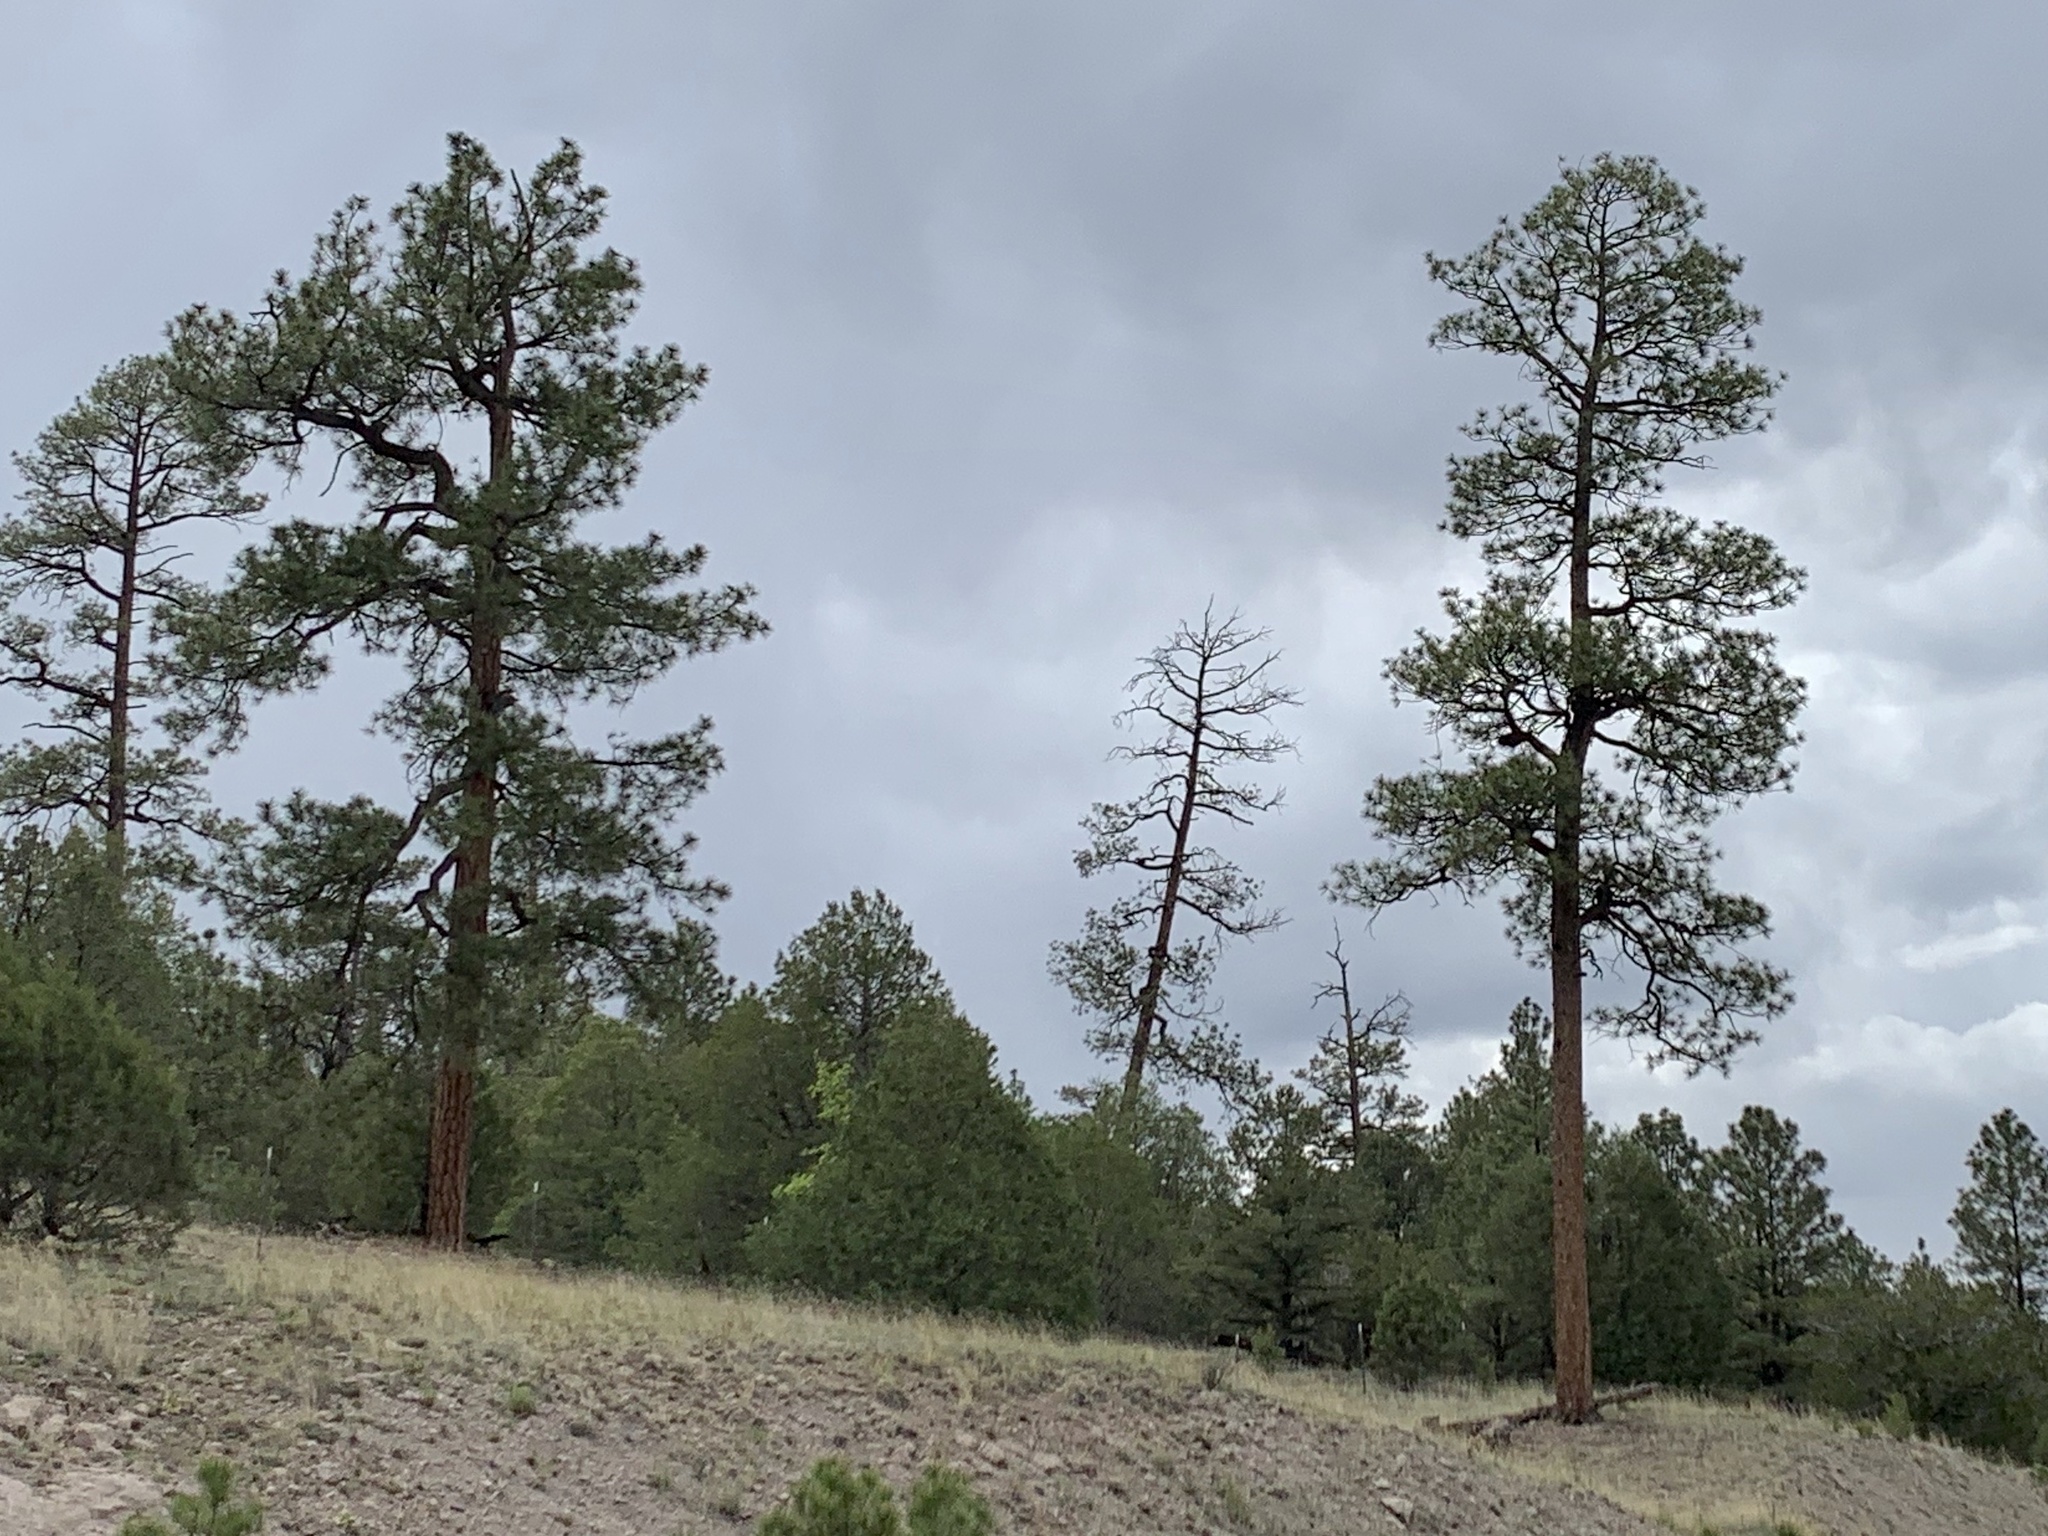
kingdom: Plantae
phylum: Tracheophyta
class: Pinopsida
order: Pinales
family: Pinaceae
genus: Pinus
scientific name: Pinus ponderosa
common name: Western yellow-pine
